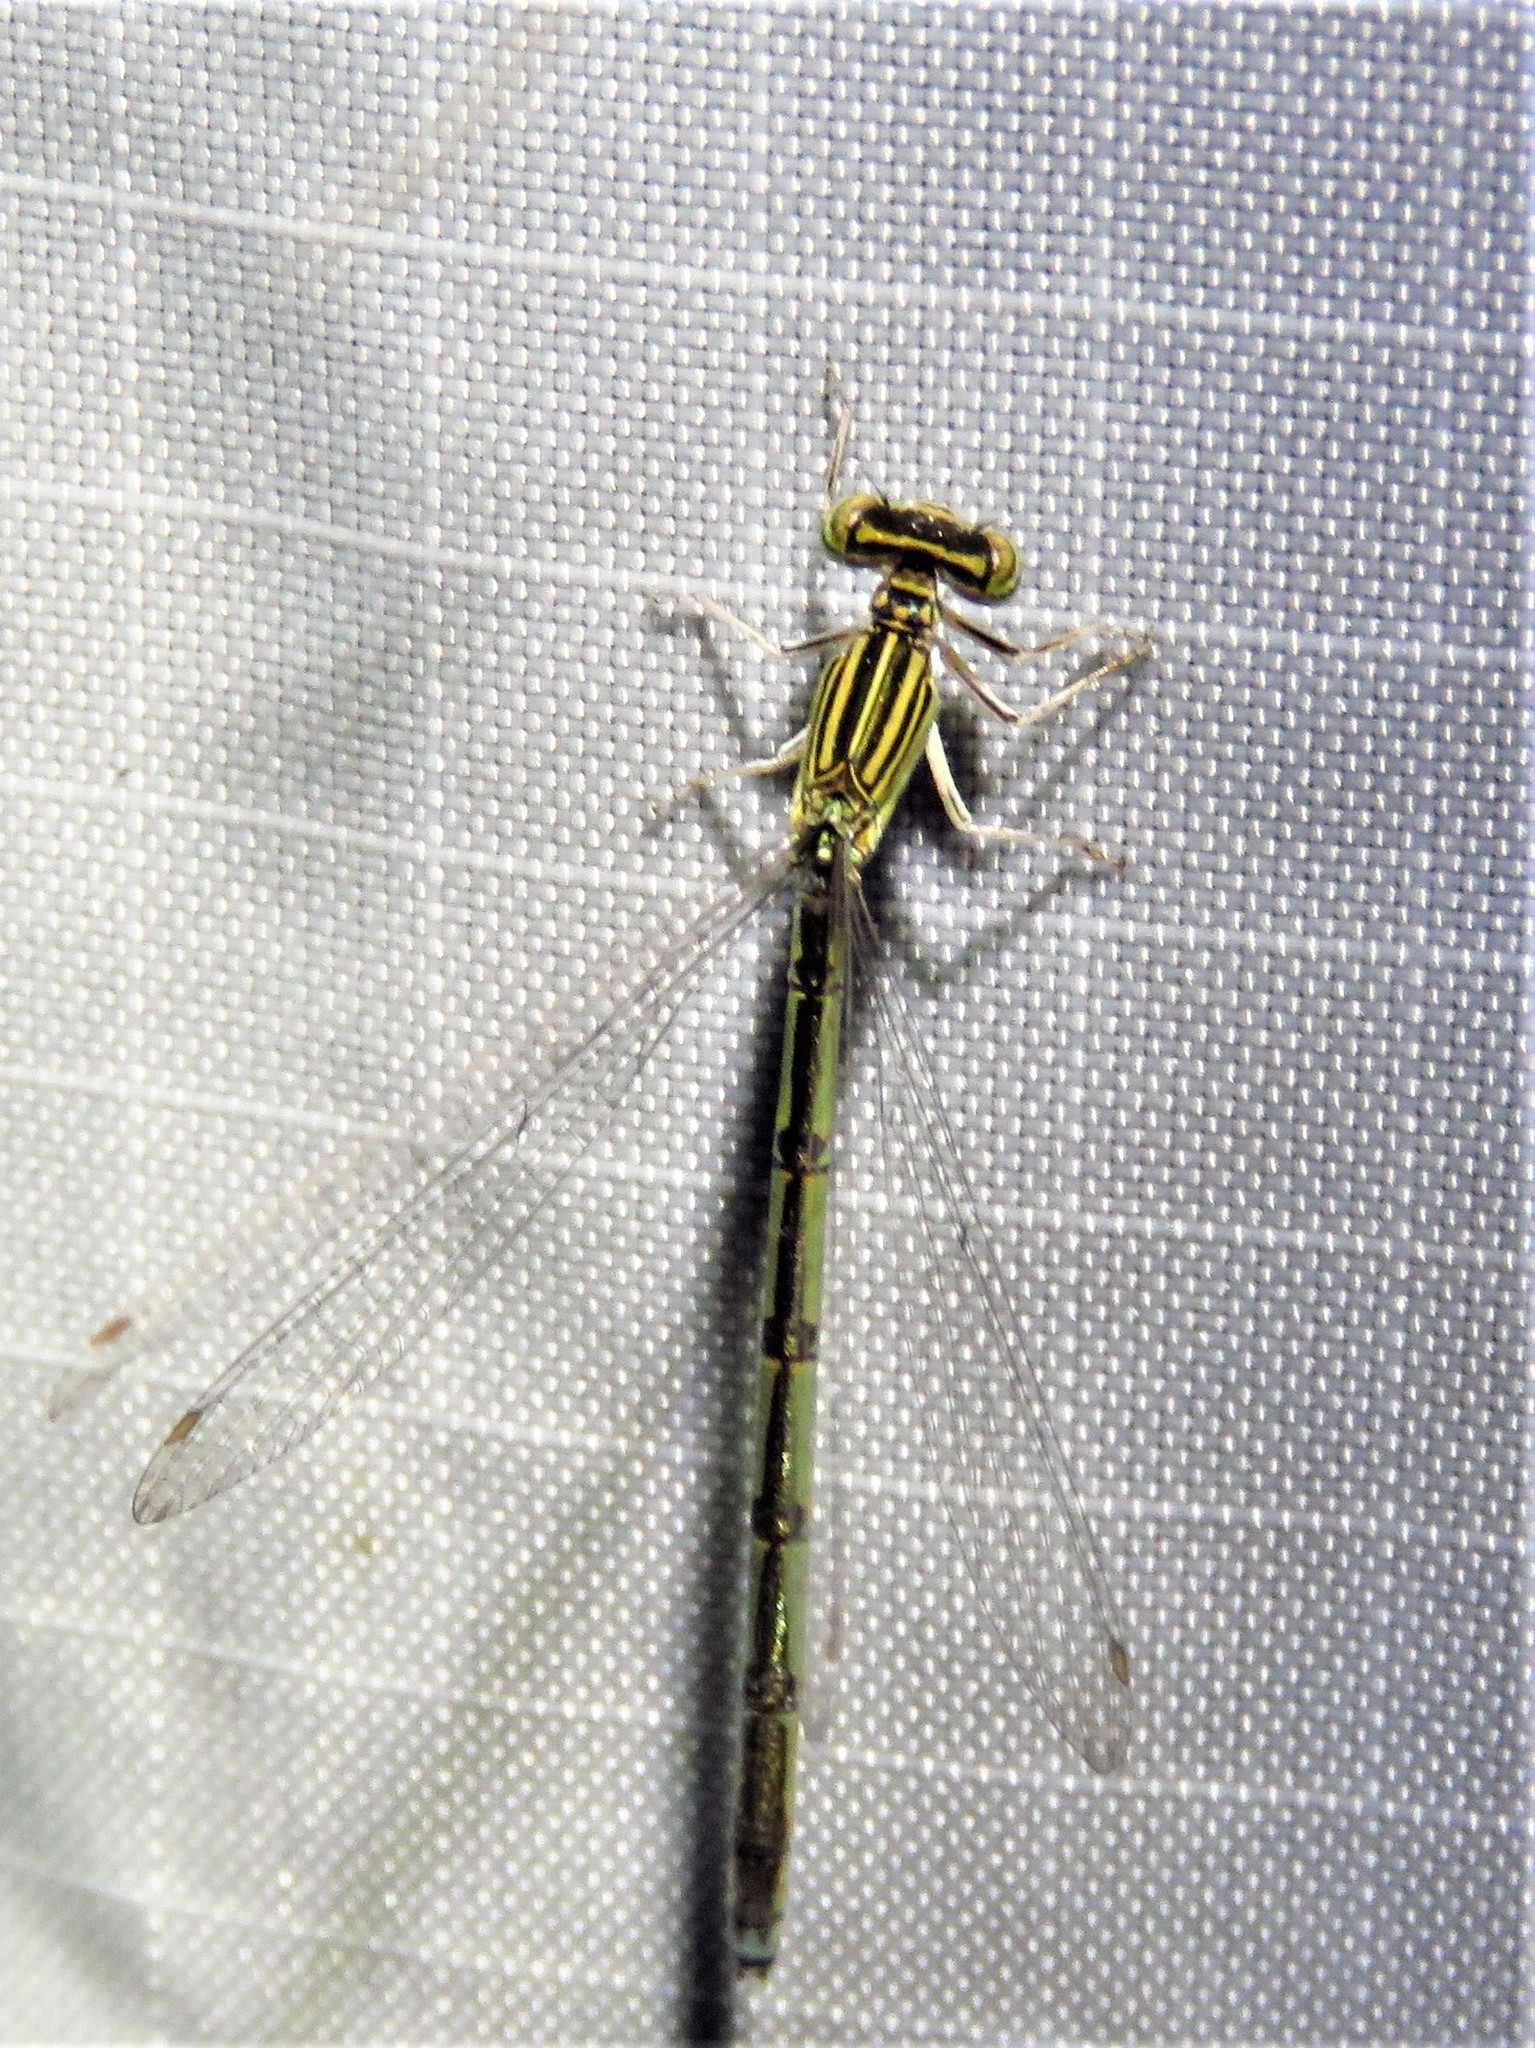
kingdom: Animalia
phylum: Arthropoda
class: Insecta
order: Odonata
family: Coenagrionidae
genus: Enallagma
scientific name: Enallagma basidens
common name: Double-striped bluet
